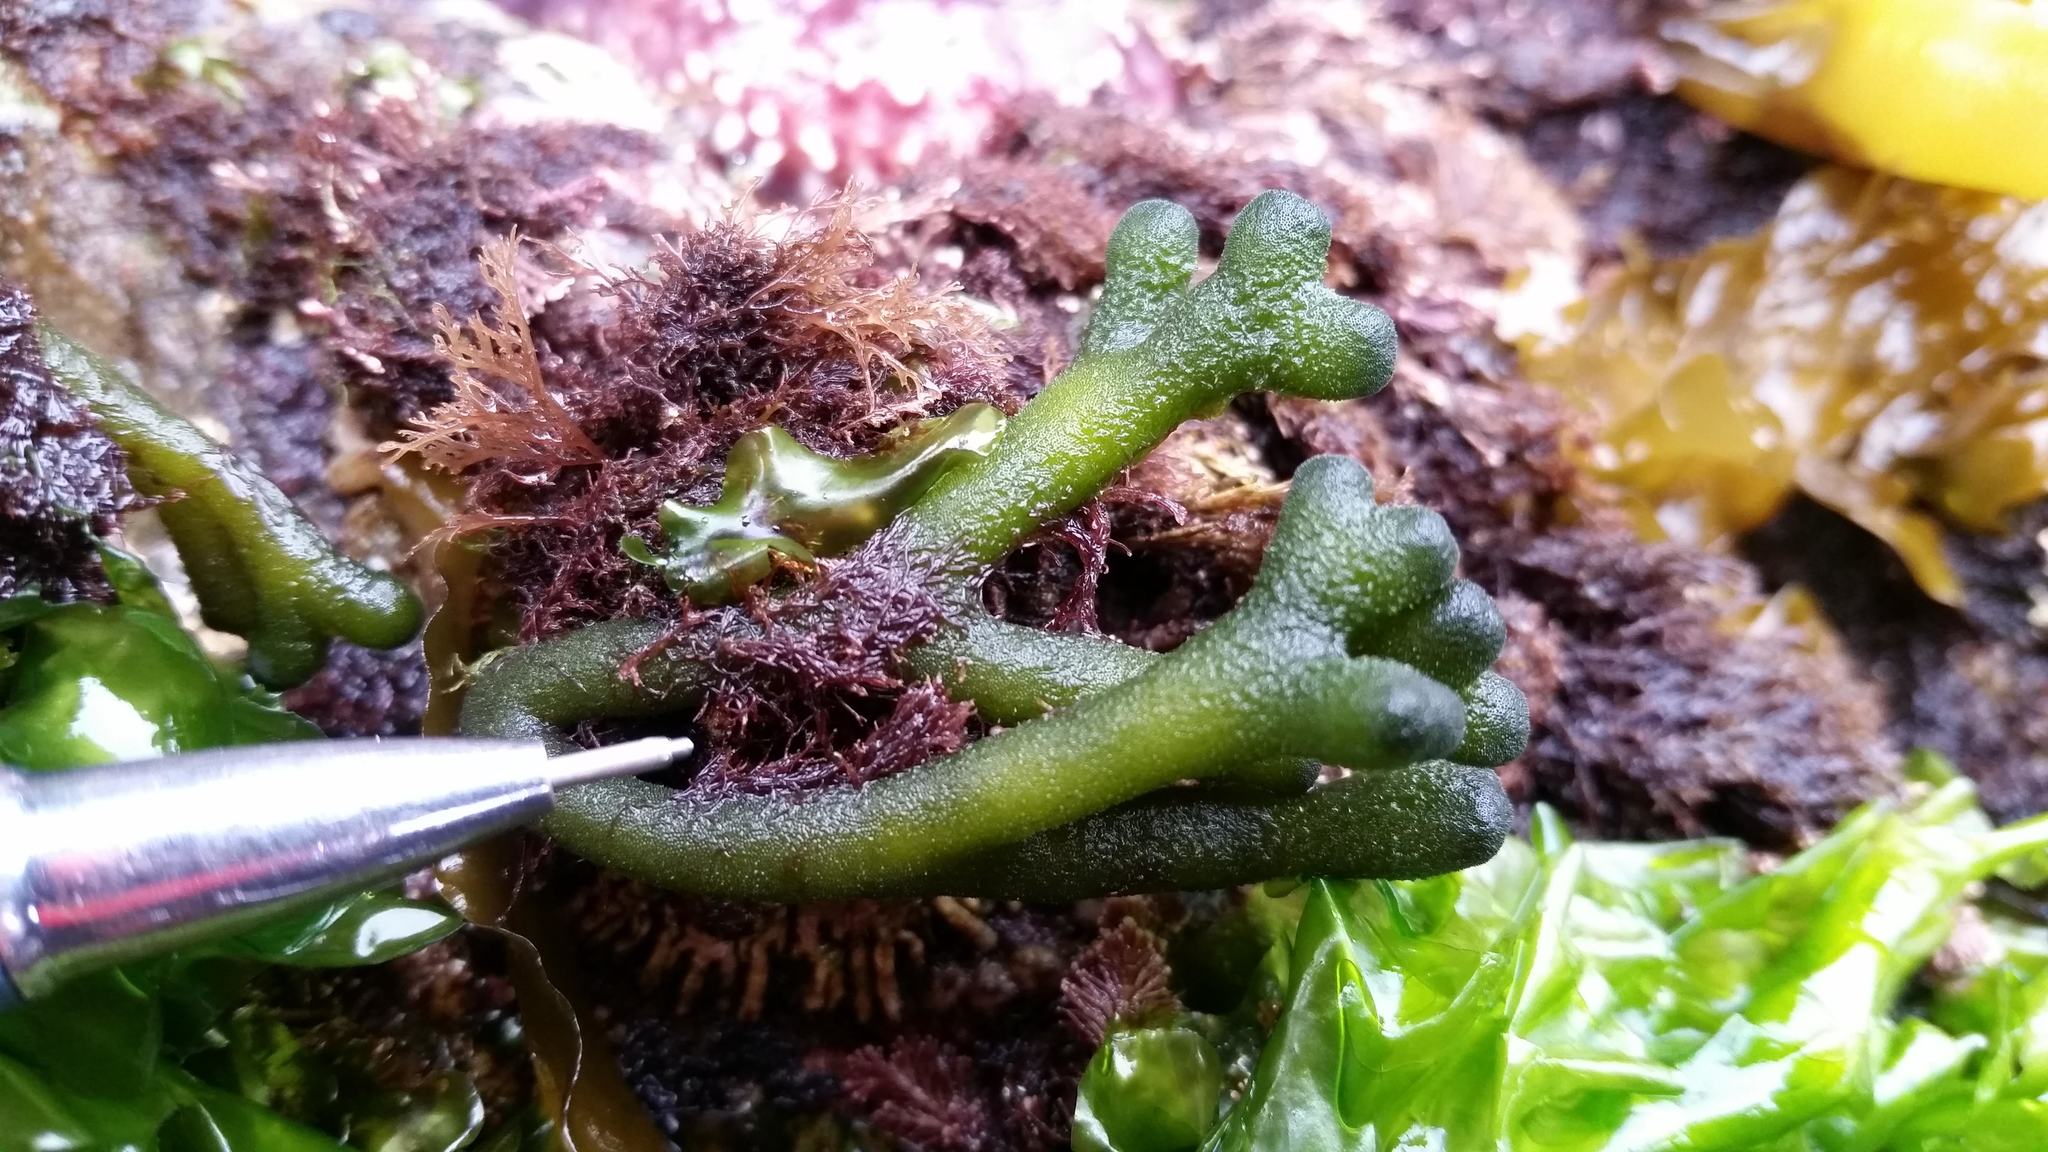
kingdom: Plantae
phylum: Rhodophyta
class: Florideophyceae
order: Ceramiales
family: Ceramiaceae
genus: Ceramium
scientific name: Ceramium codicola
